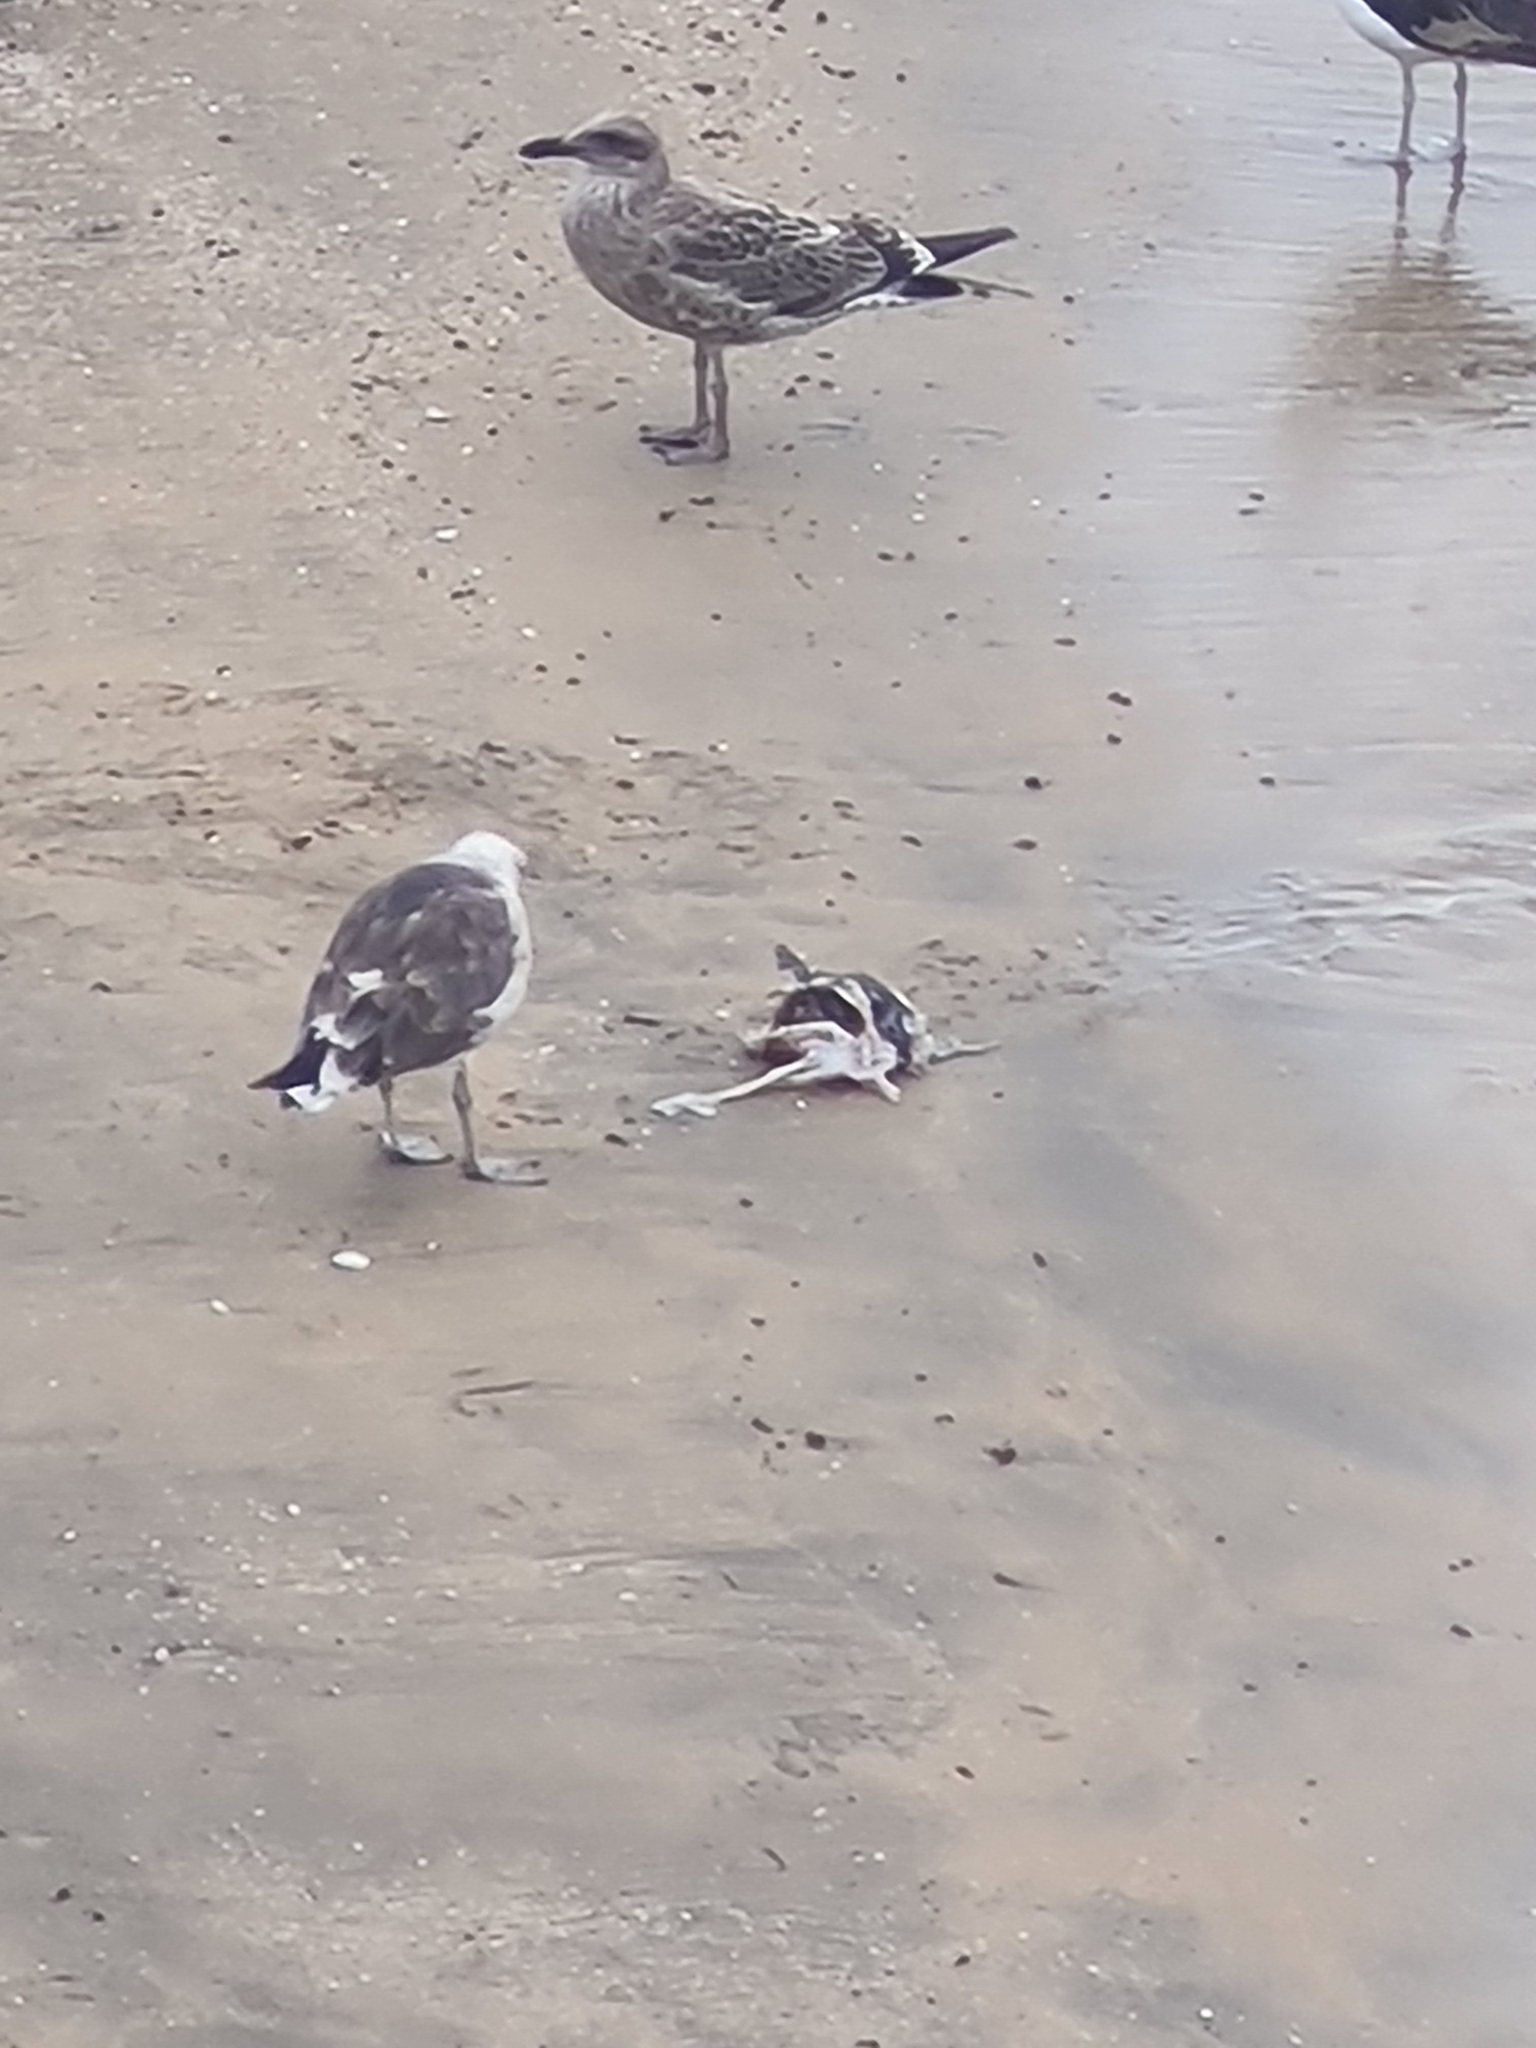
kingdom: Animalia
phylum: Chordata
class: Aves
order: Charadriiformes
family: Laridae
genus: Larus
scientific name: Larus dominicanus
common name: Kelp gull
